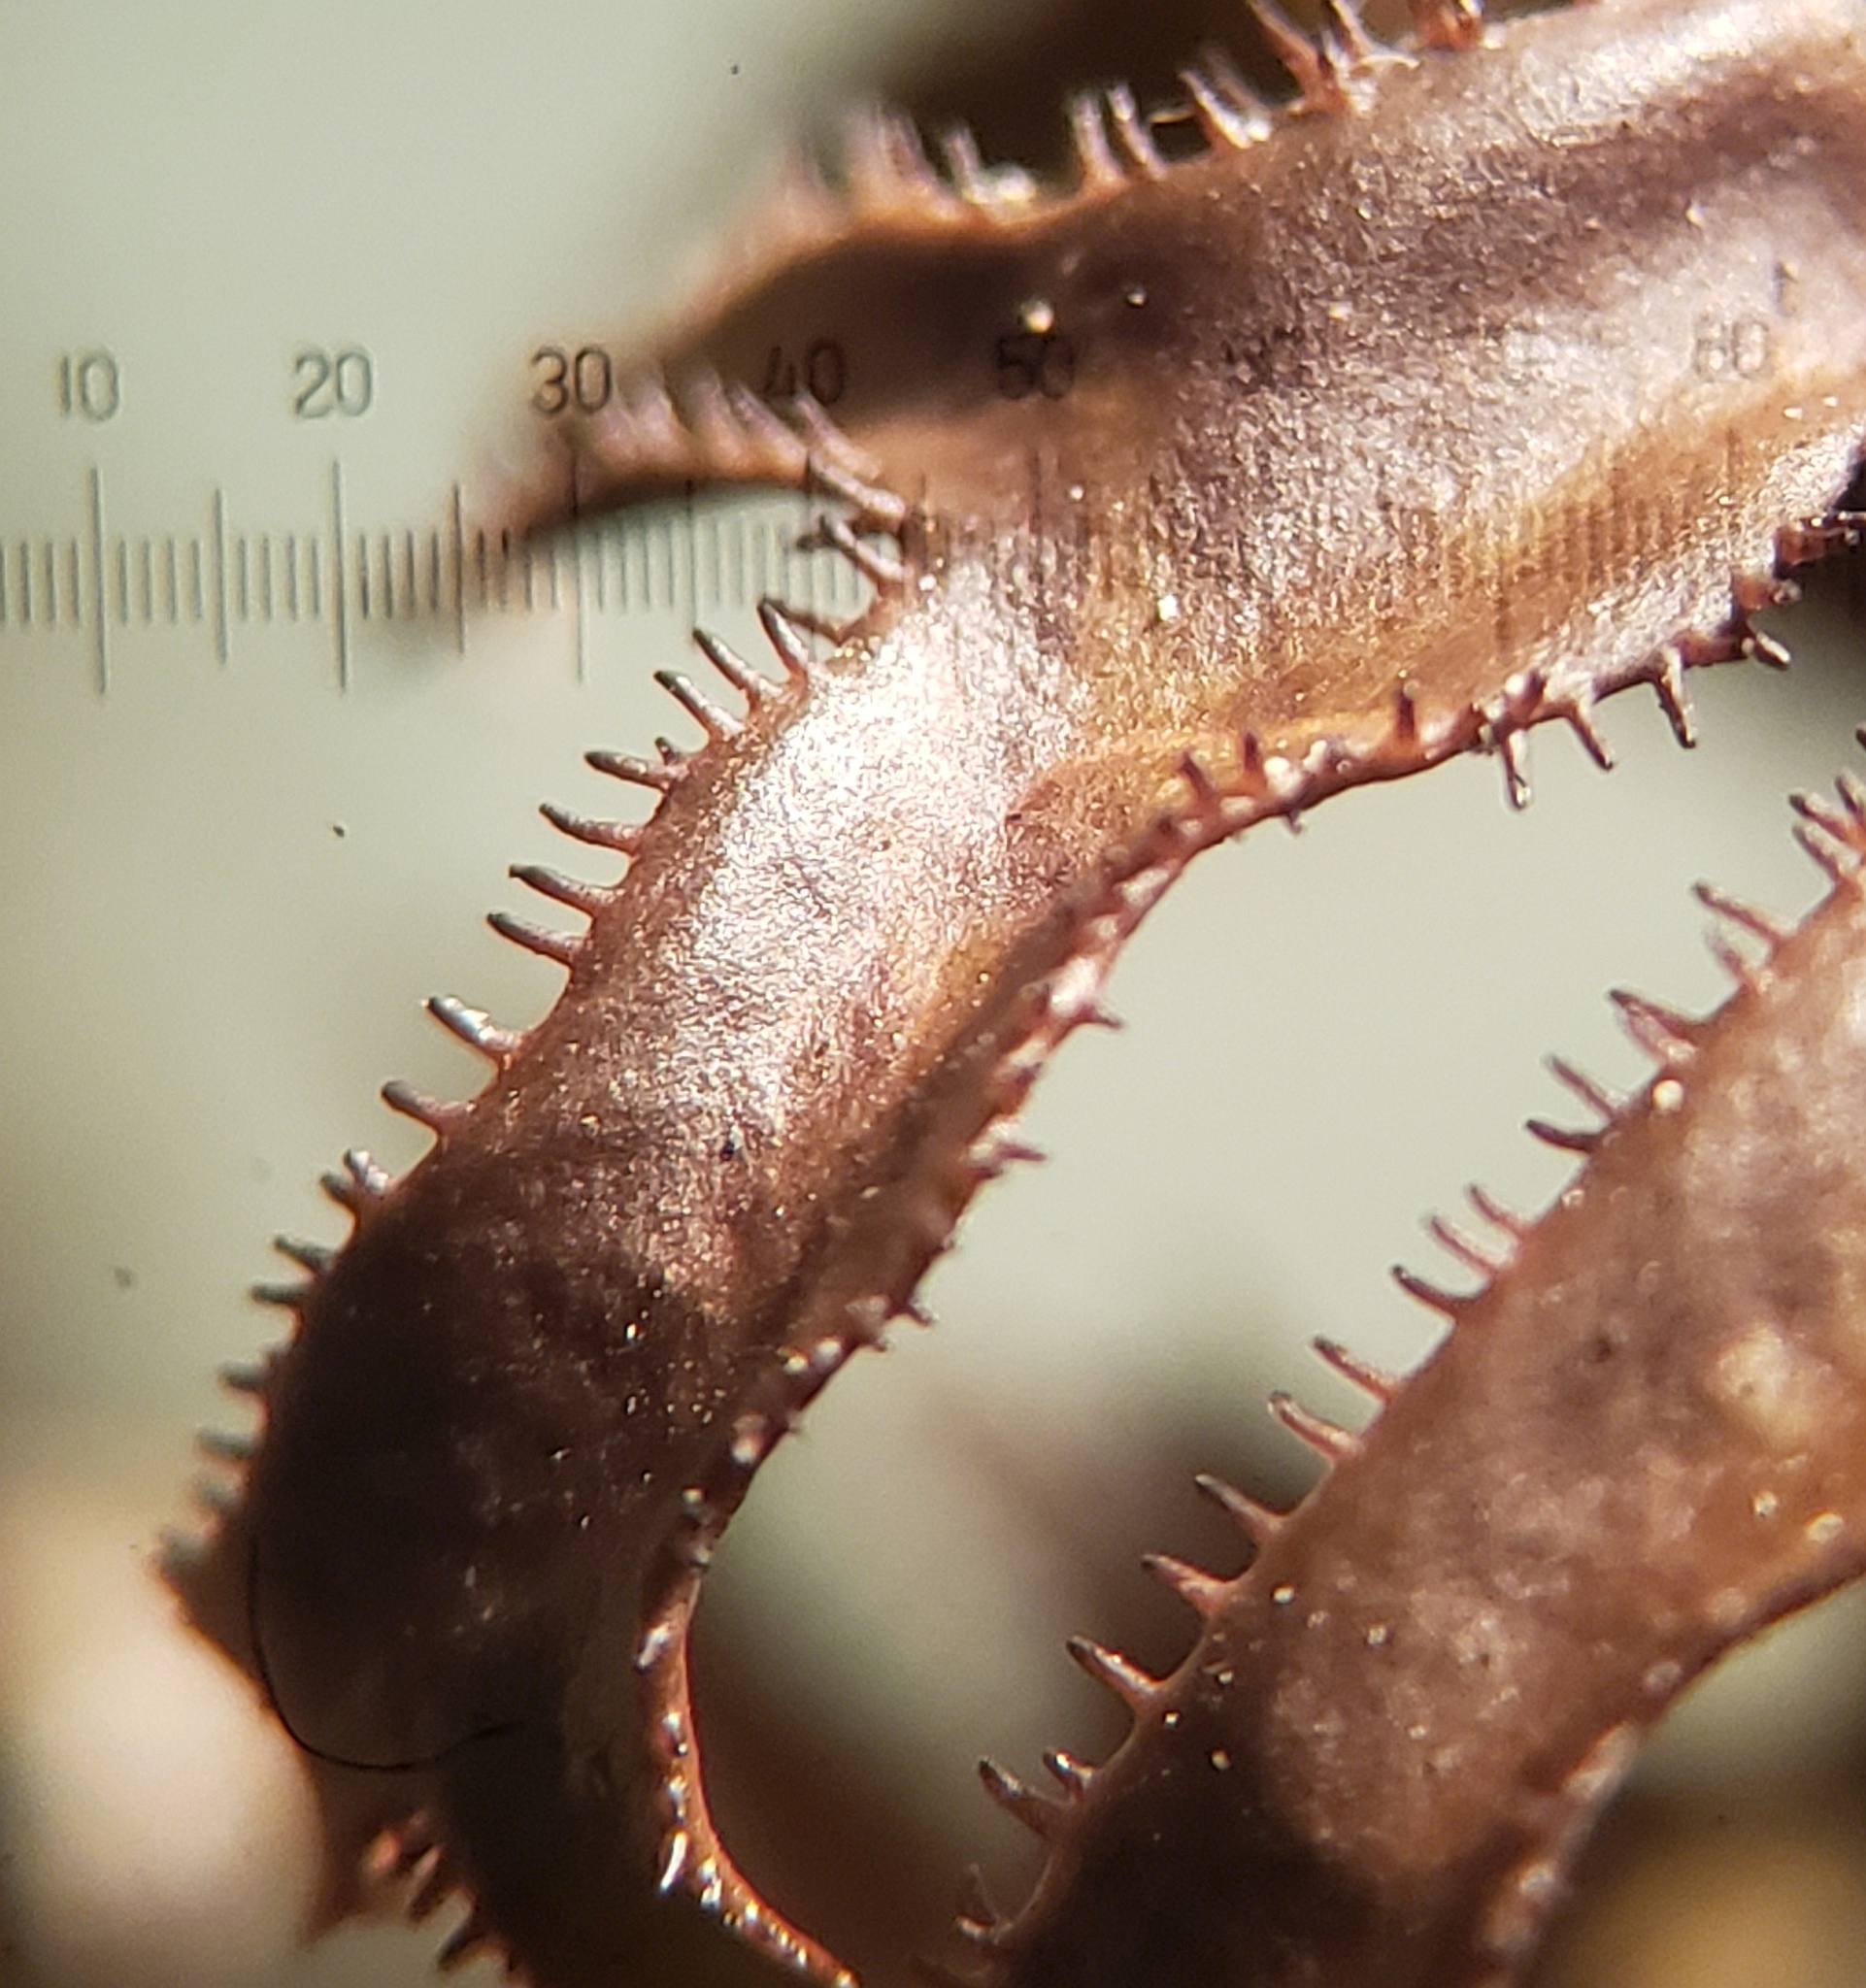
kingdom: Fungi
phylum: Ascomycota
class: Lecanoromycetes
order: Lecanorales
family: Parmeliaceae
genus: Cetraria
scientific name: Cetraria arenaria
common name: Sand-loving iceland lichen
